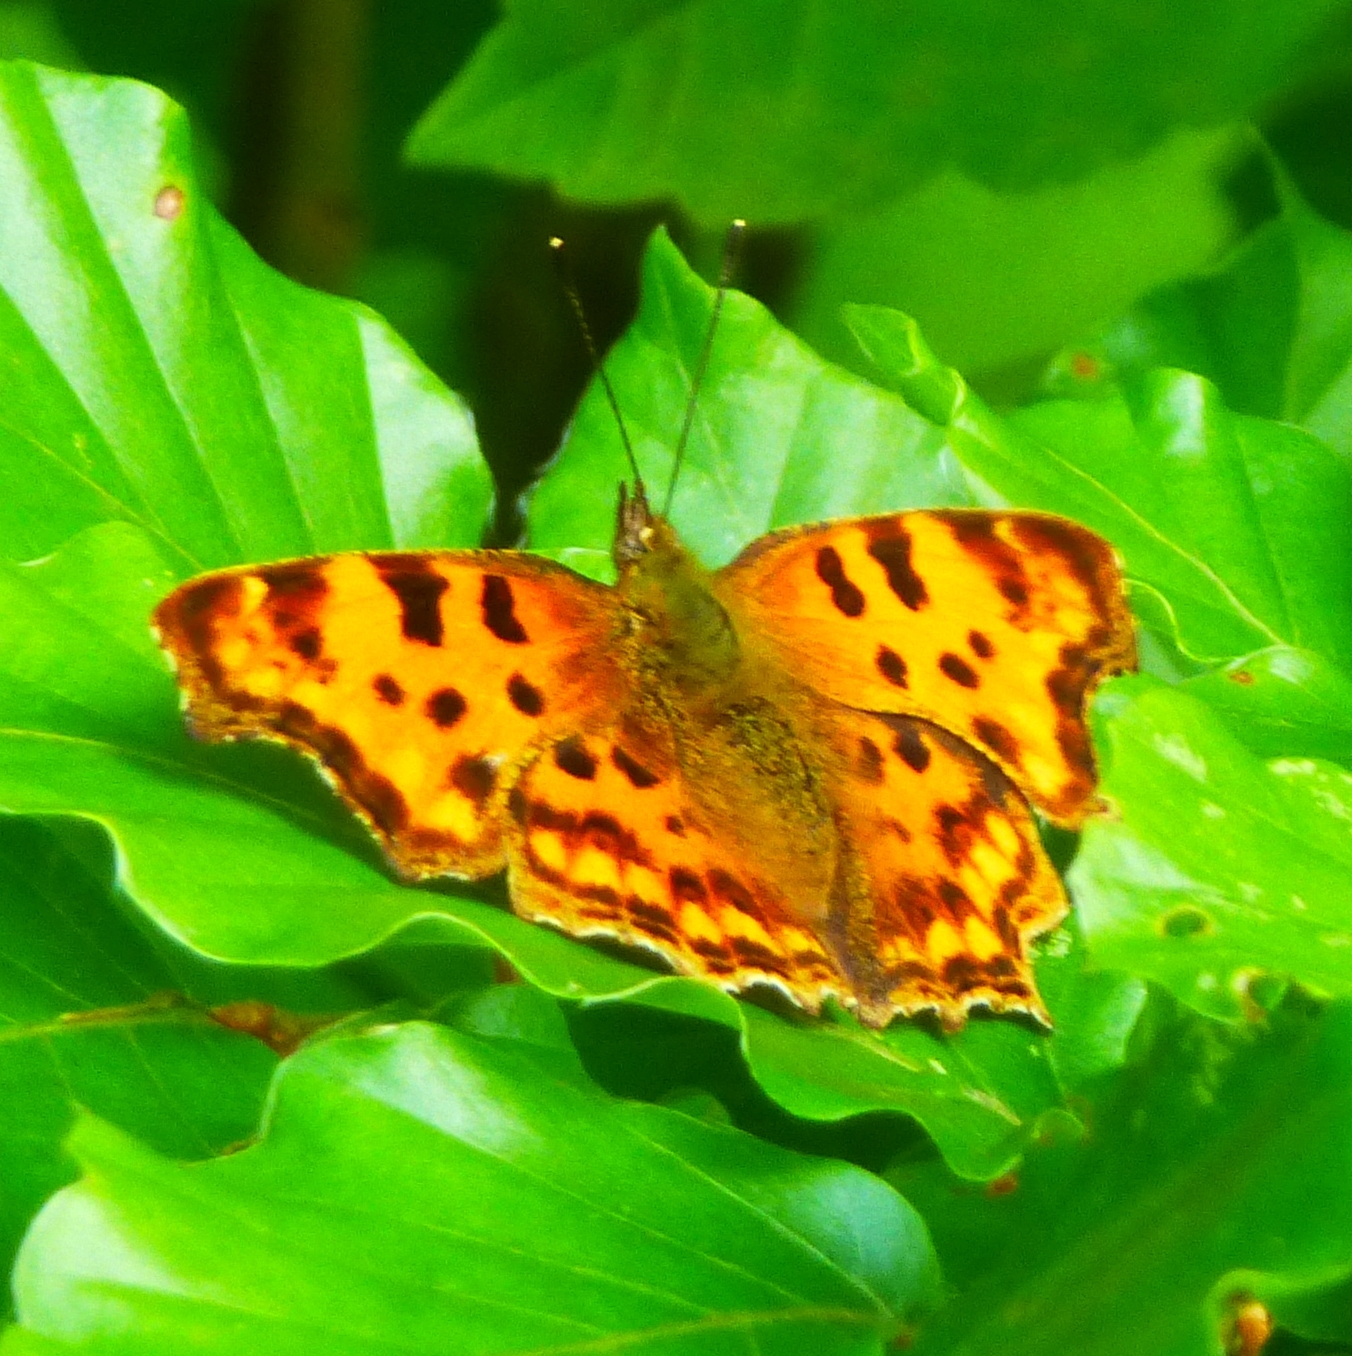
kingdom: Animalia
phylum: Arthropoda
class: Insecta
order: Lepidoptera
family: Nymphalidae
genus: Polygonia
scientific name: Polygonia c-album
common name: Comma
